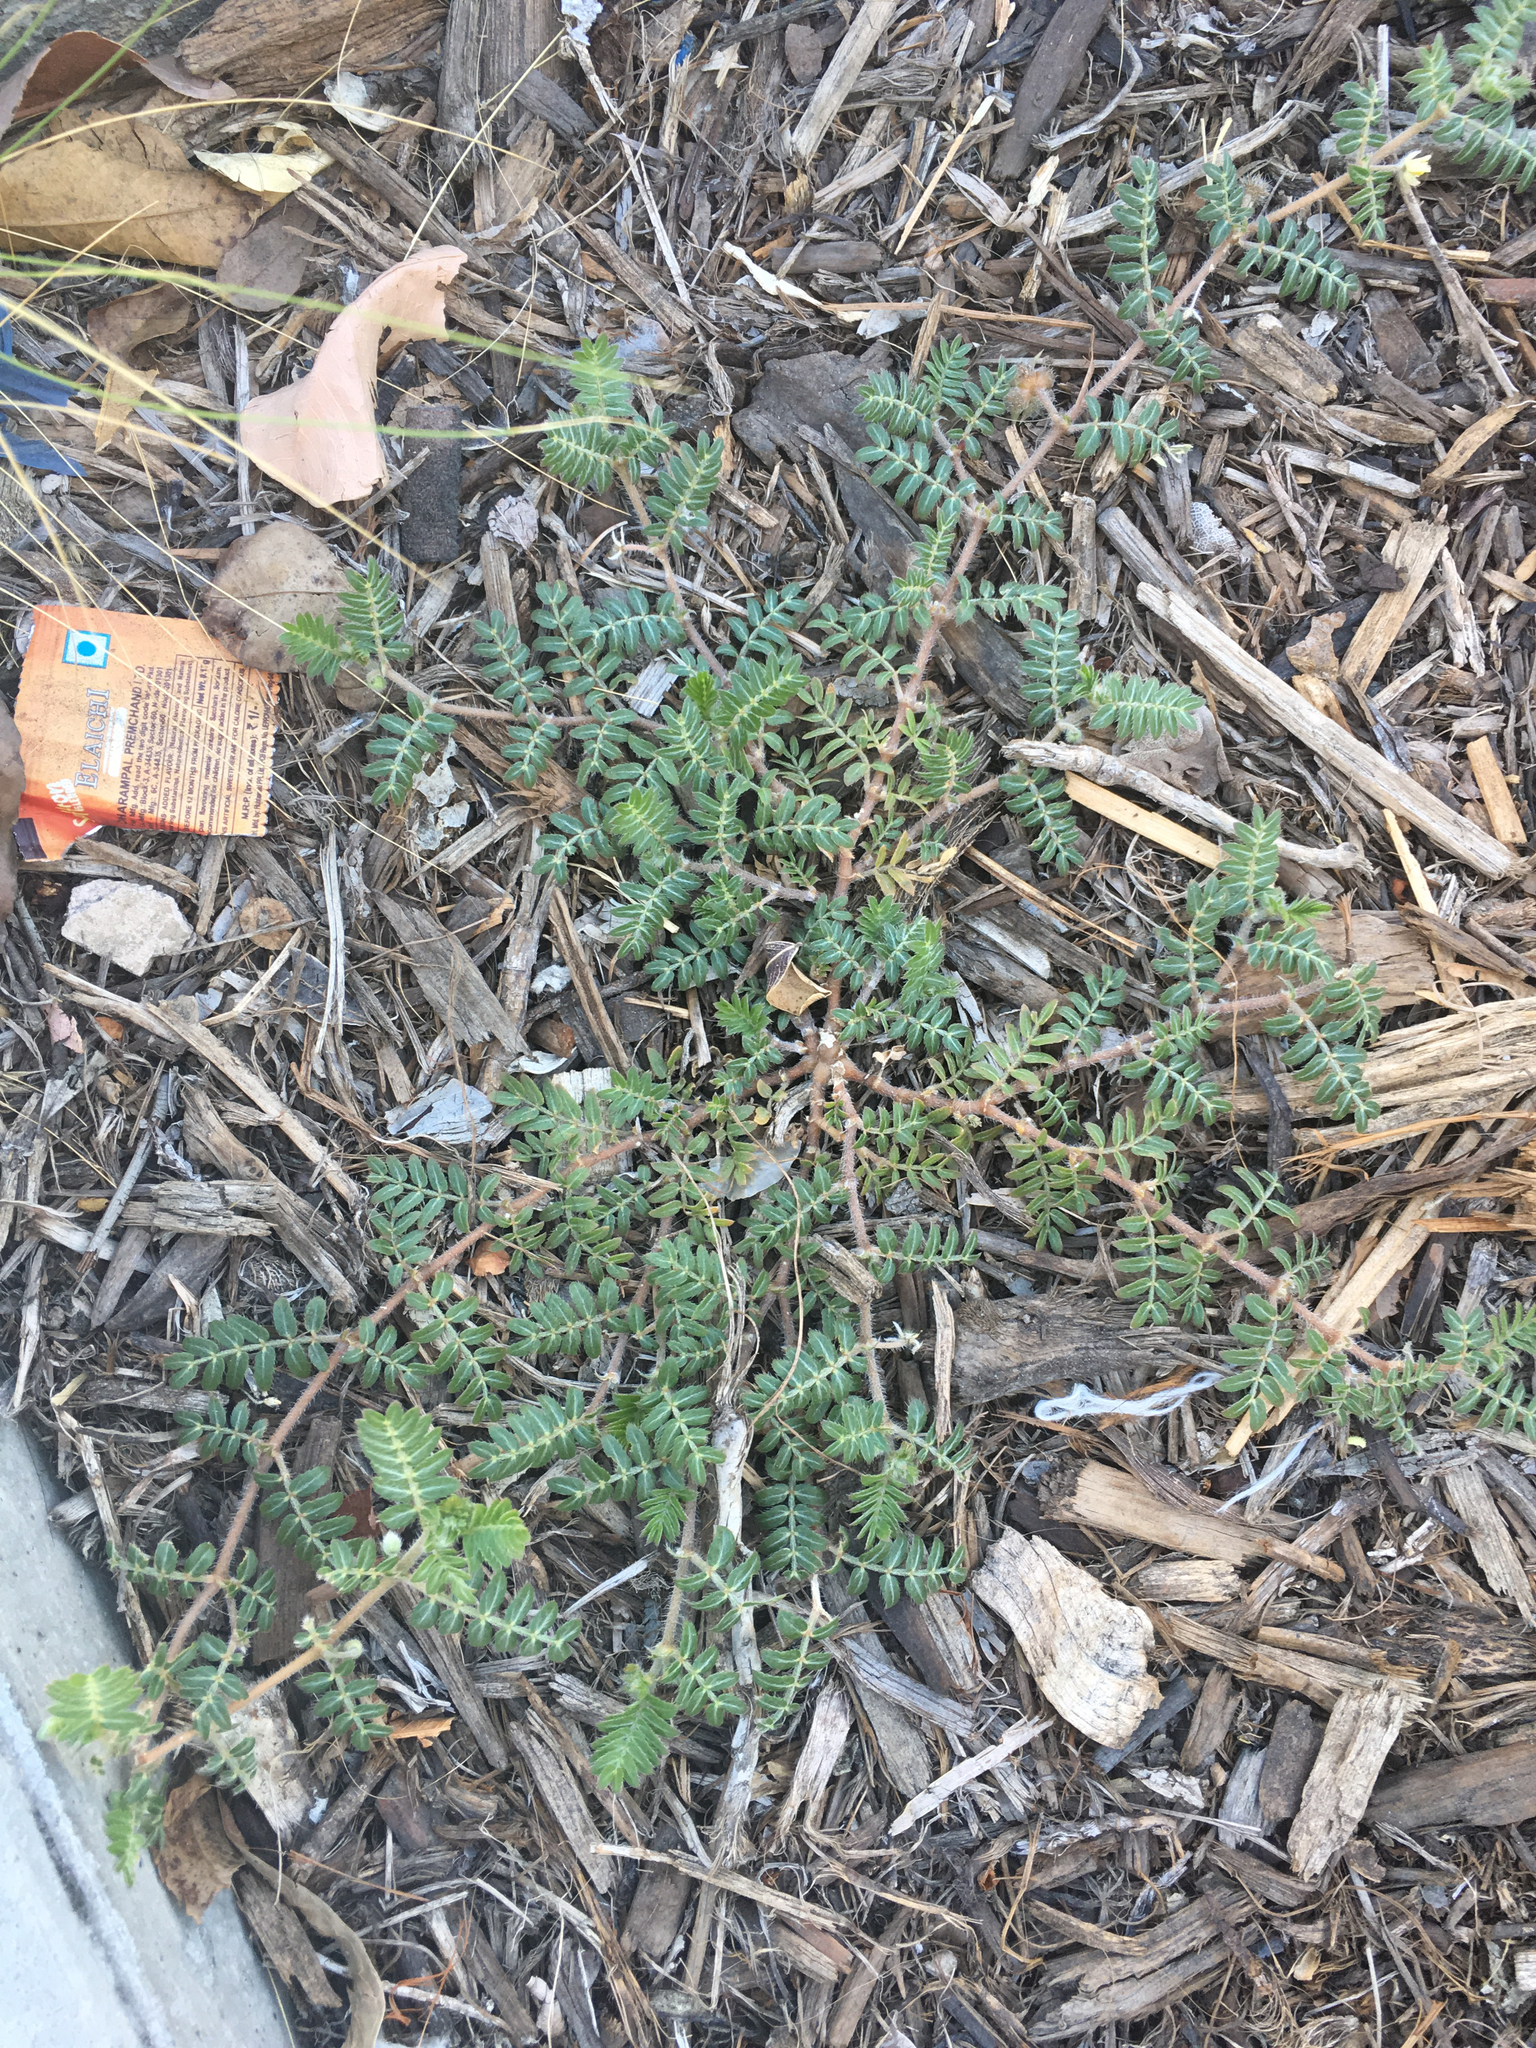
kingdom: Plantae
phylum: Tracheophyta
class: Magnoliopsida
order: Zygophyllales
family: Zygophyllaceae
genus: Tribulus
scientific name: Tribulus terrestris
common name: Puncturevine
